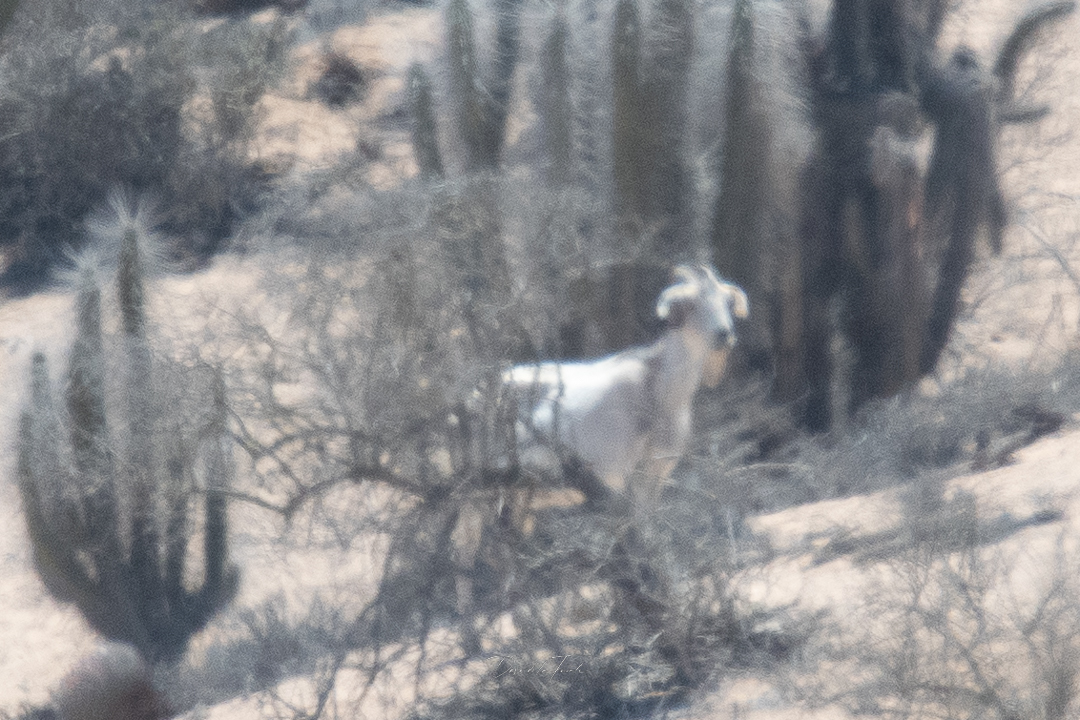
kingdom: Animalia
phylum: Chordata
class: Mammalia
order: Artiodactyla
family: Bovidae
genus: Capra
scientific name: Capra hircus
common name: Domestic goat
